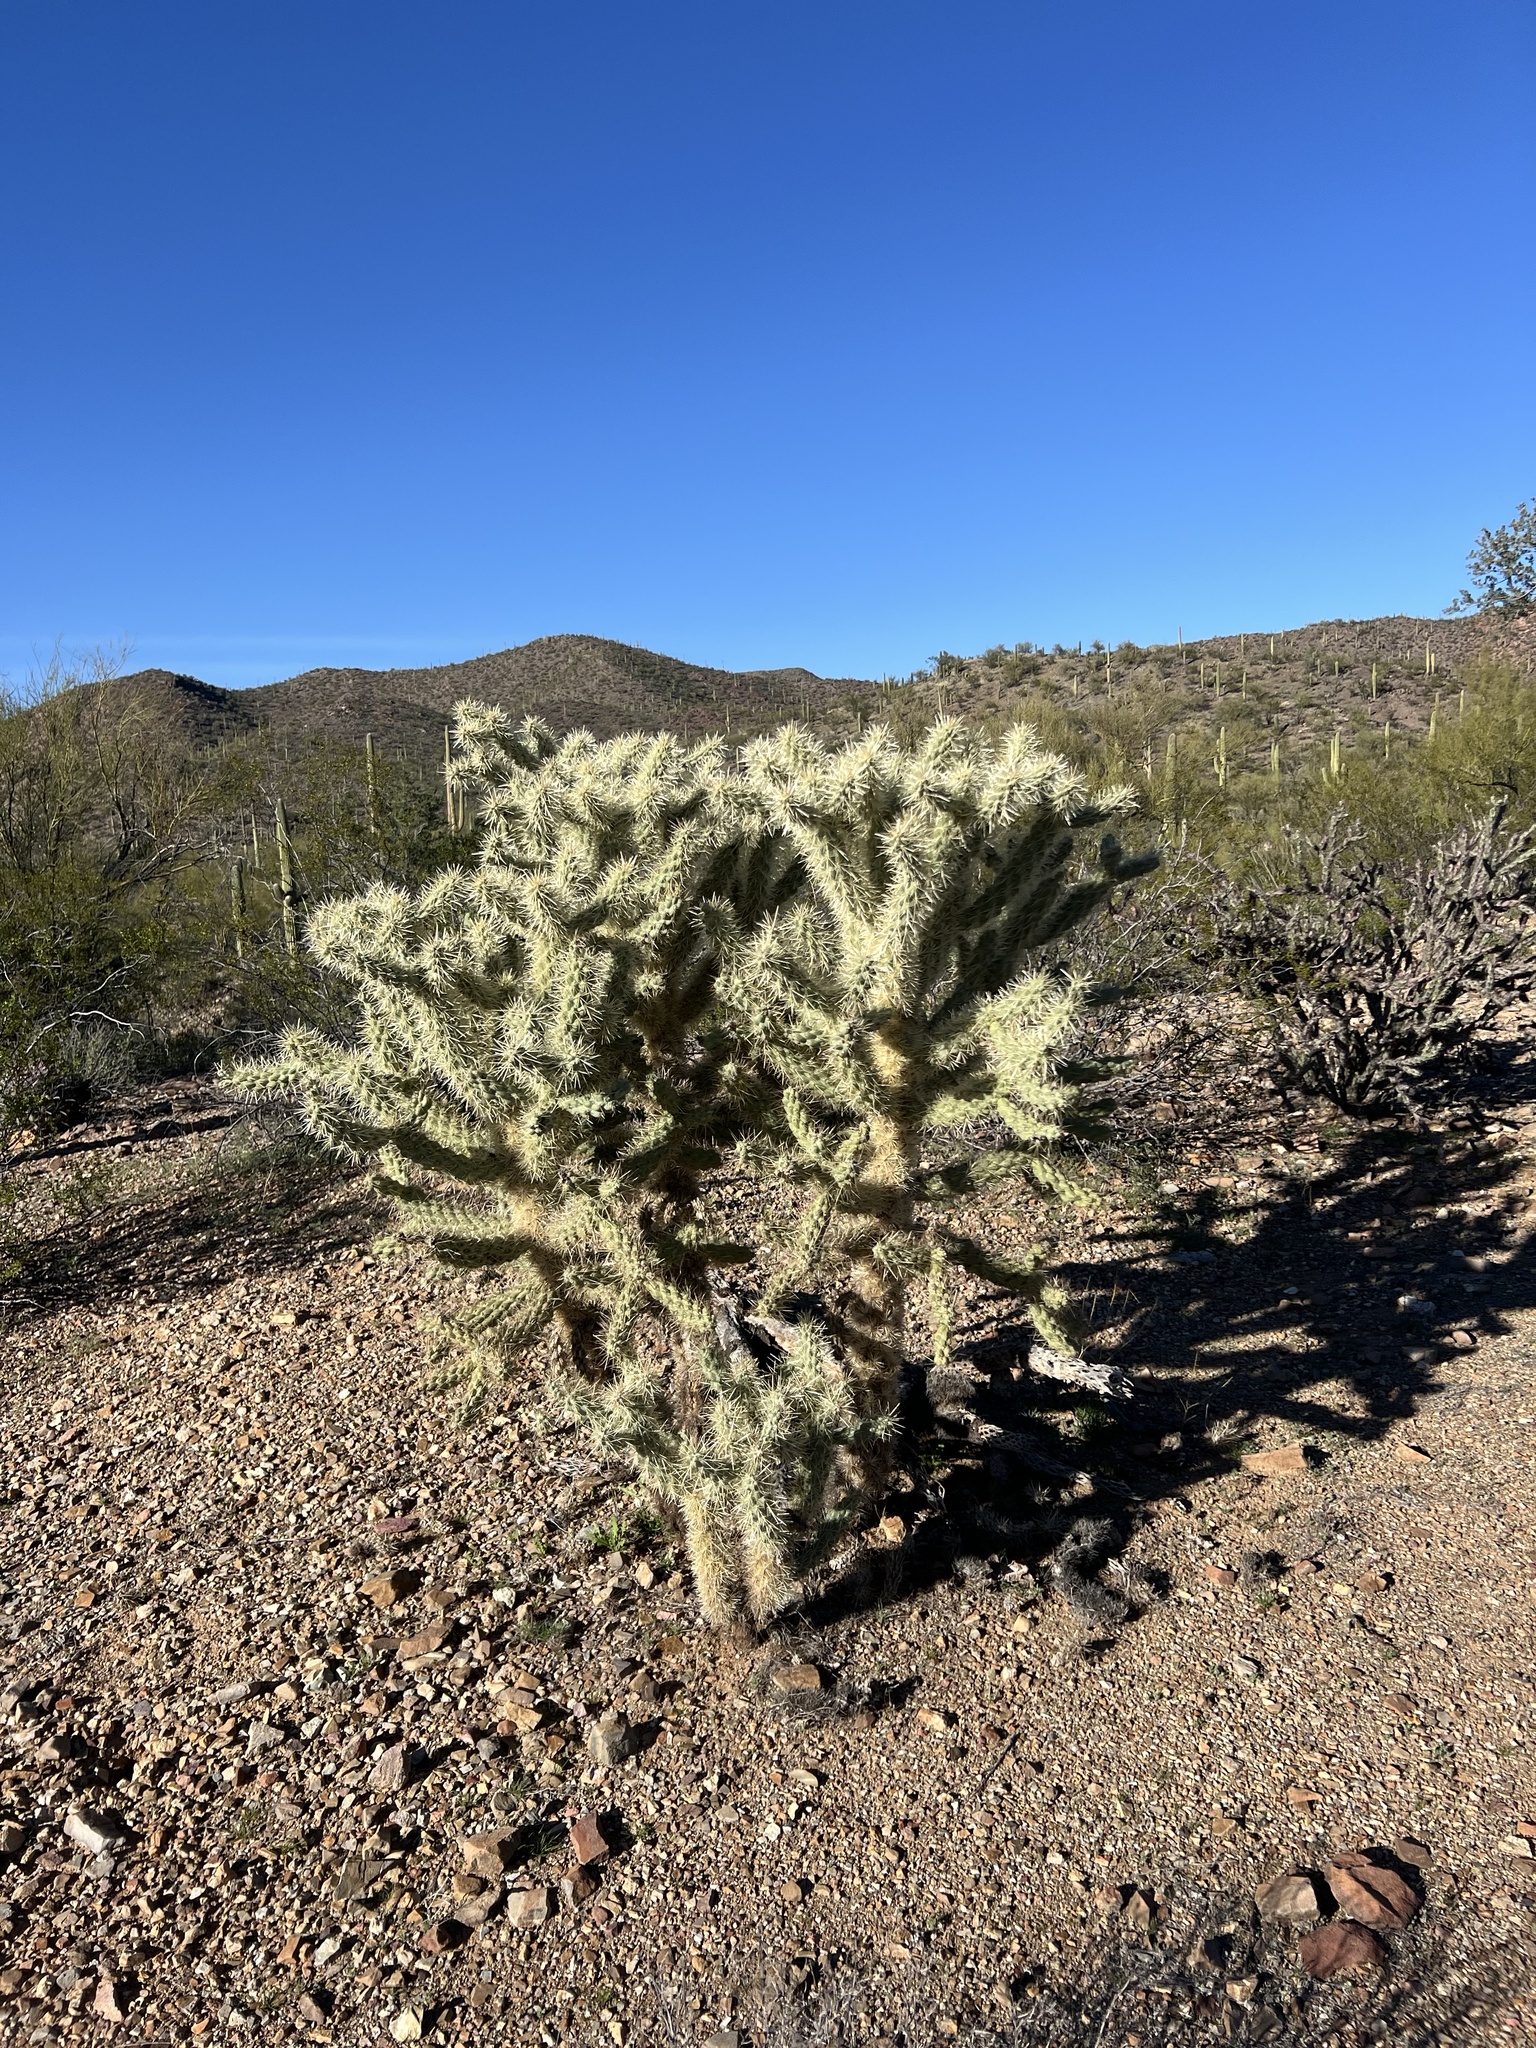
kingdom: Plantae
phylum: Tracheophyta
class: Magnoliopsida
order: Caryophyllales
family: Cactaceae
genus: Cylindropuntia
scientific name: Cylindropuntia fulgida
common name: Jumping cholla
